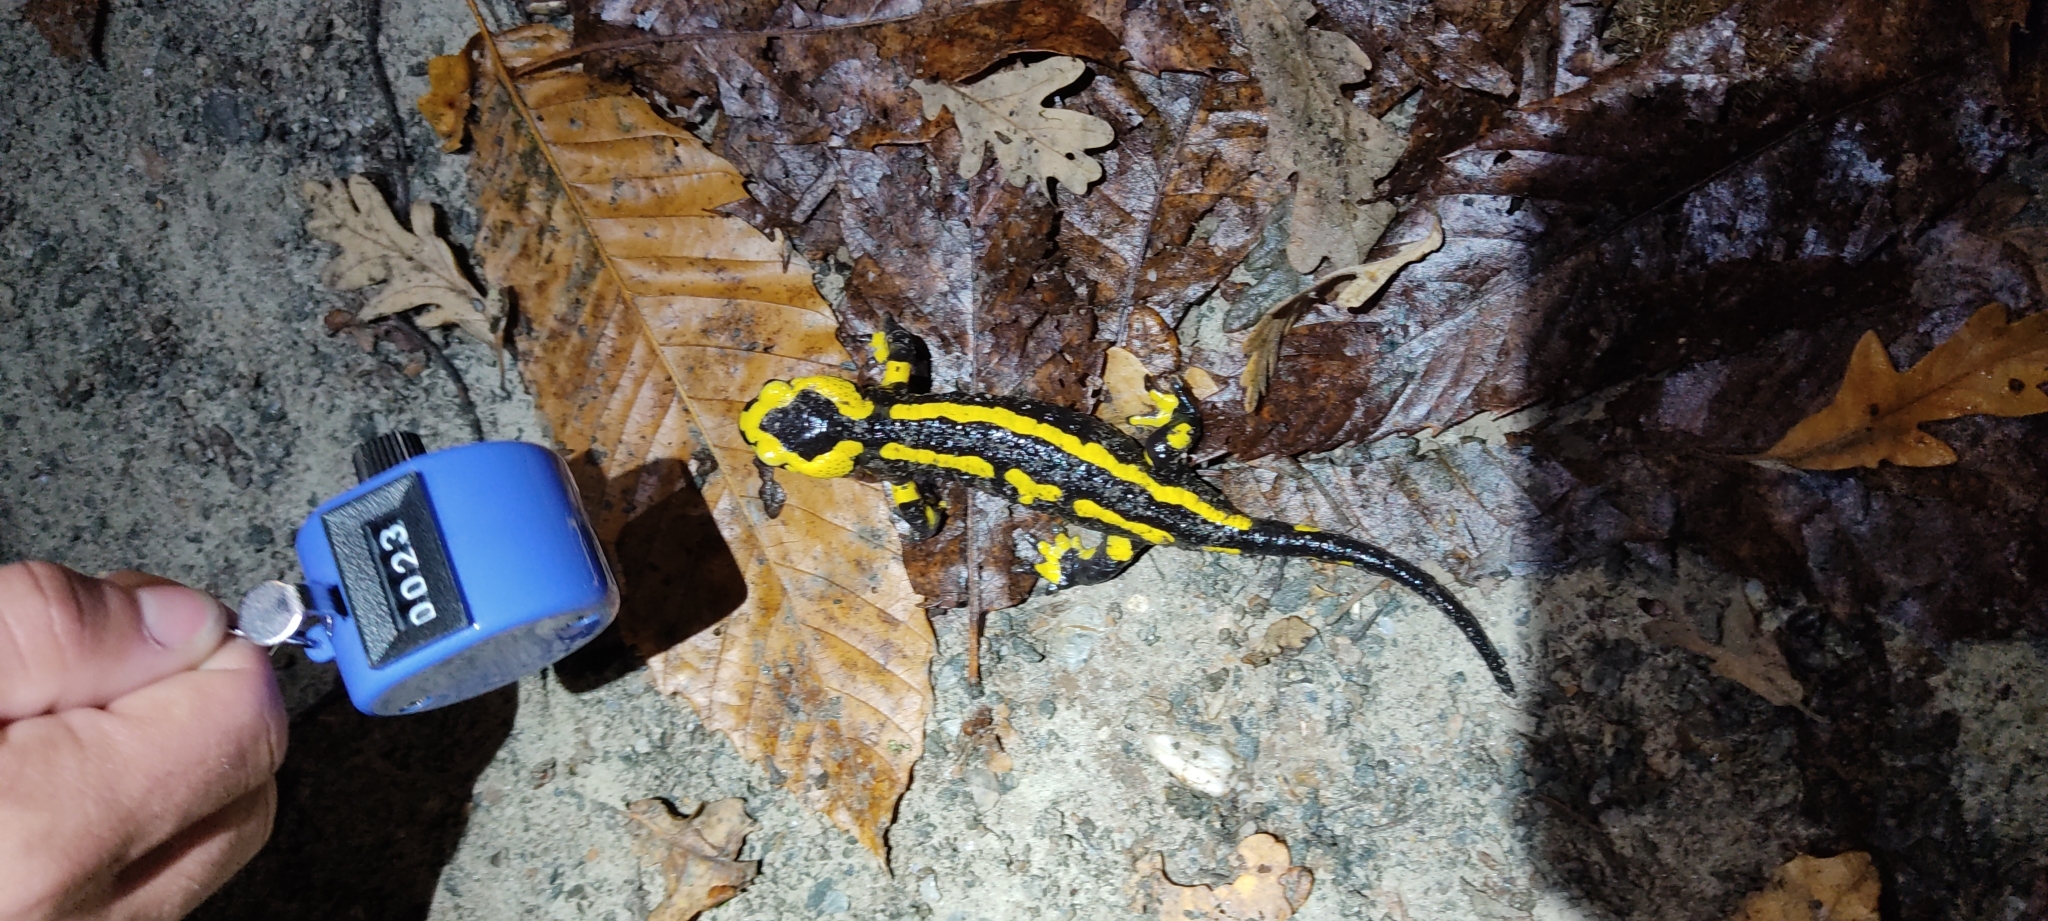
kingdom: Animalia
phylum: Chordata
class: Amphibia
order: Caudata
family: Salamandridae
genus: Salamandra
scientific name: Salamandra salamandra
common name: Fire salamander
